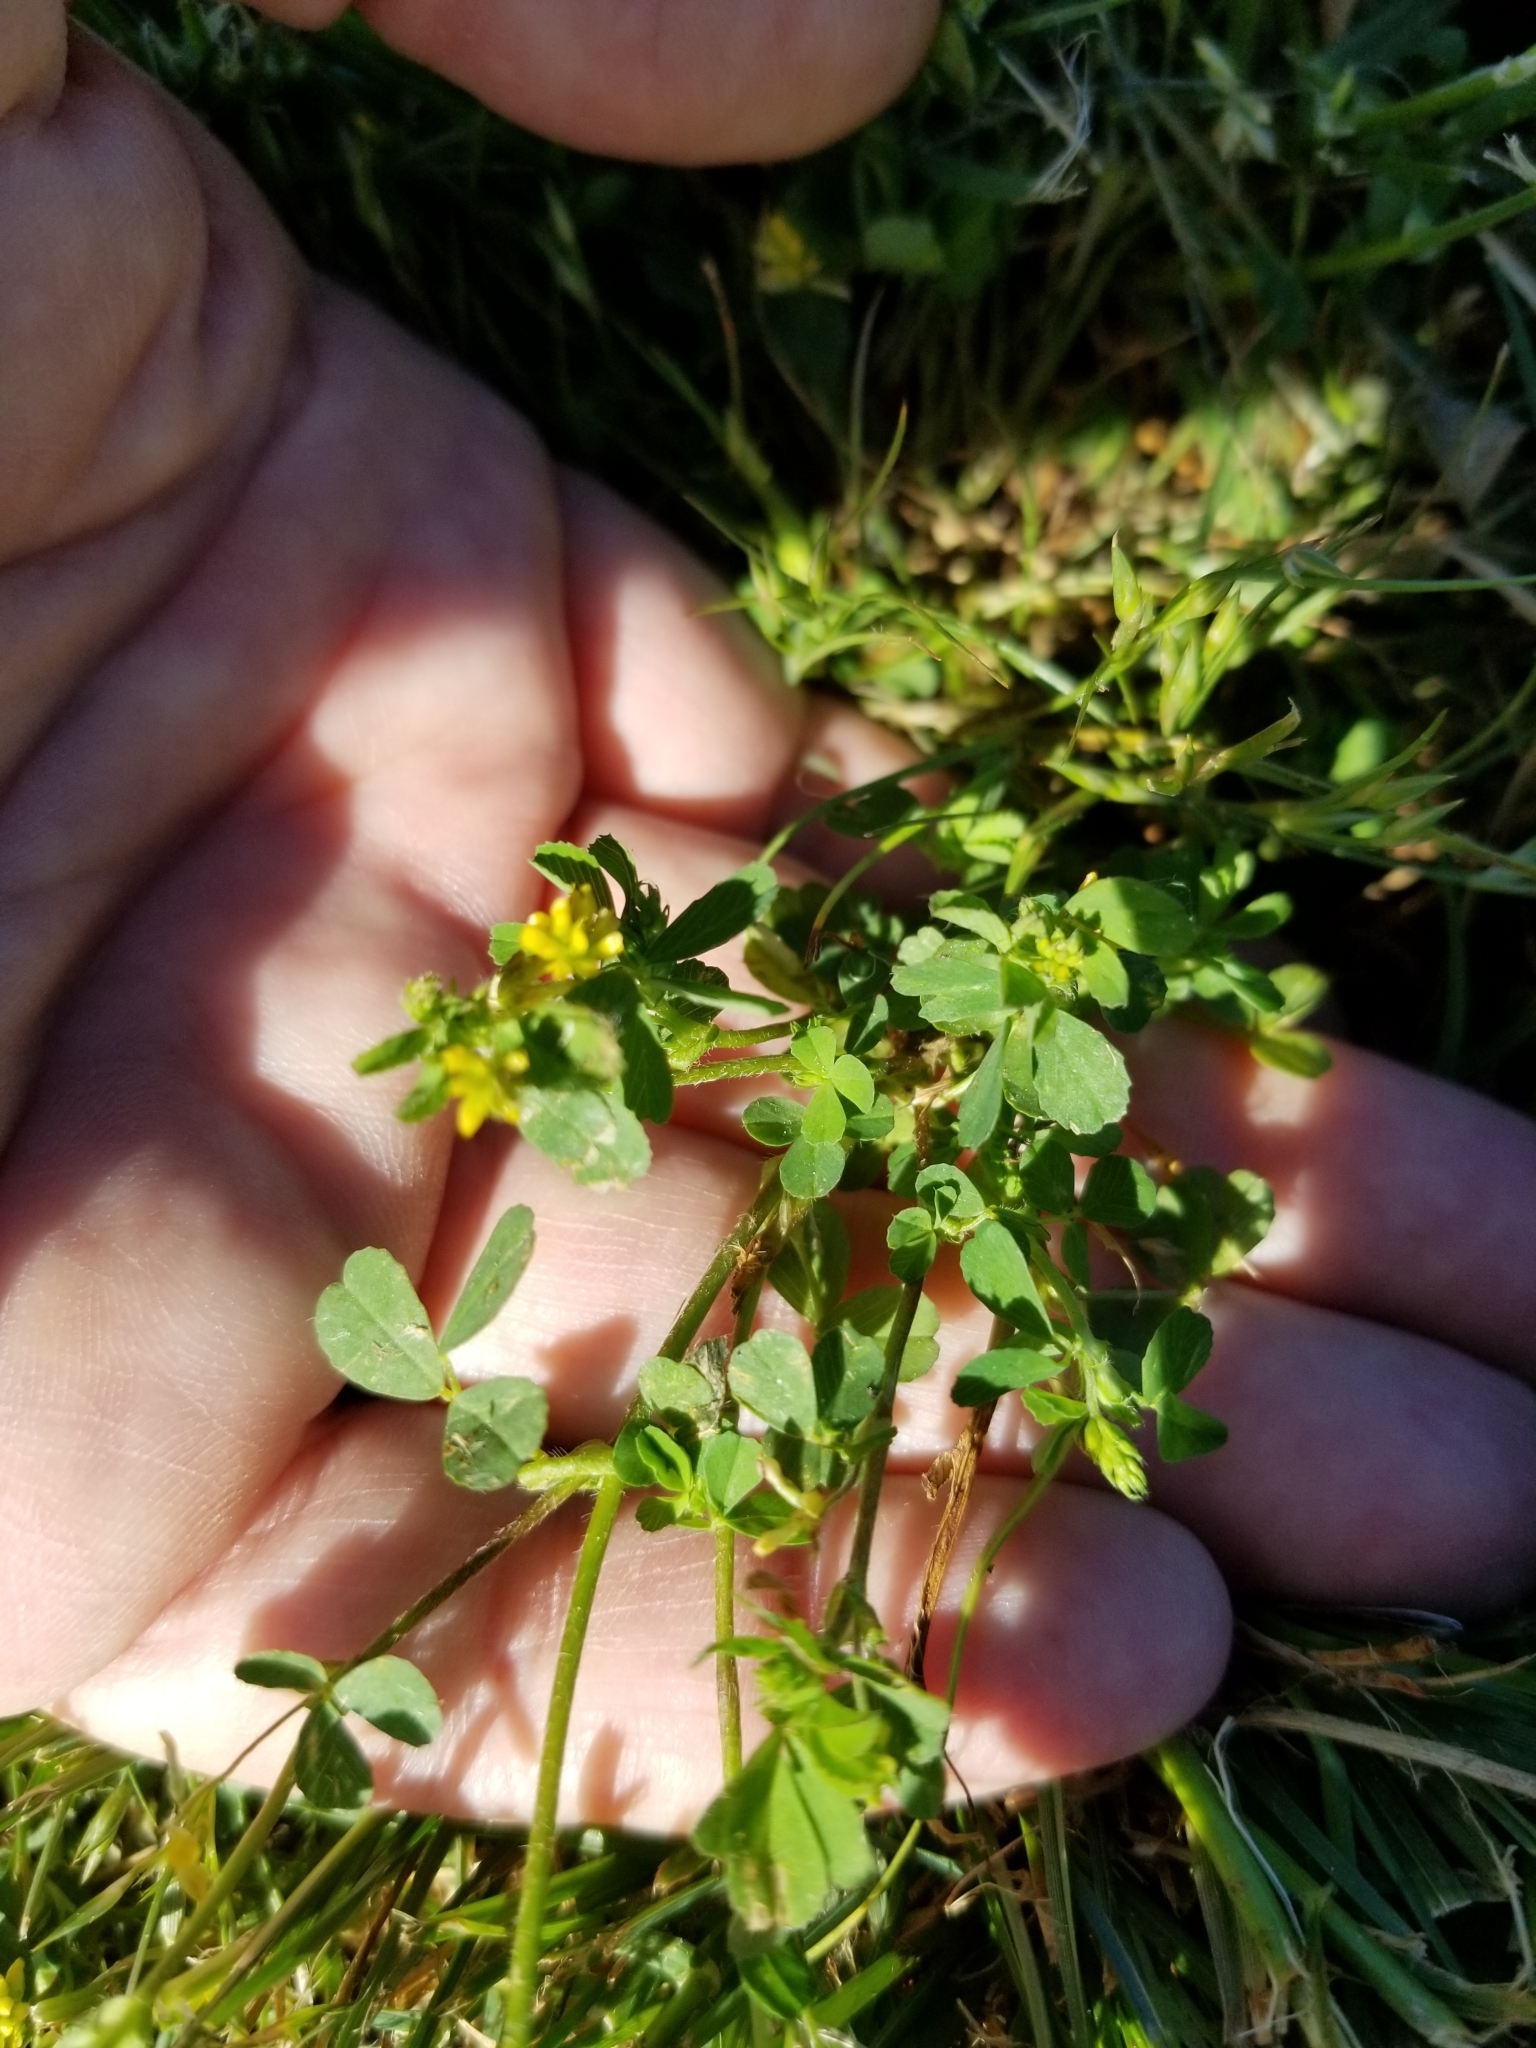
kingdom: Plantae
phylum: Tracheophyta
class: Magnoliopsida
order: Fabales
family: Fabaceae
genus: Trifolium
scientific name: Trifolium dubium
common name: Suckling clover
